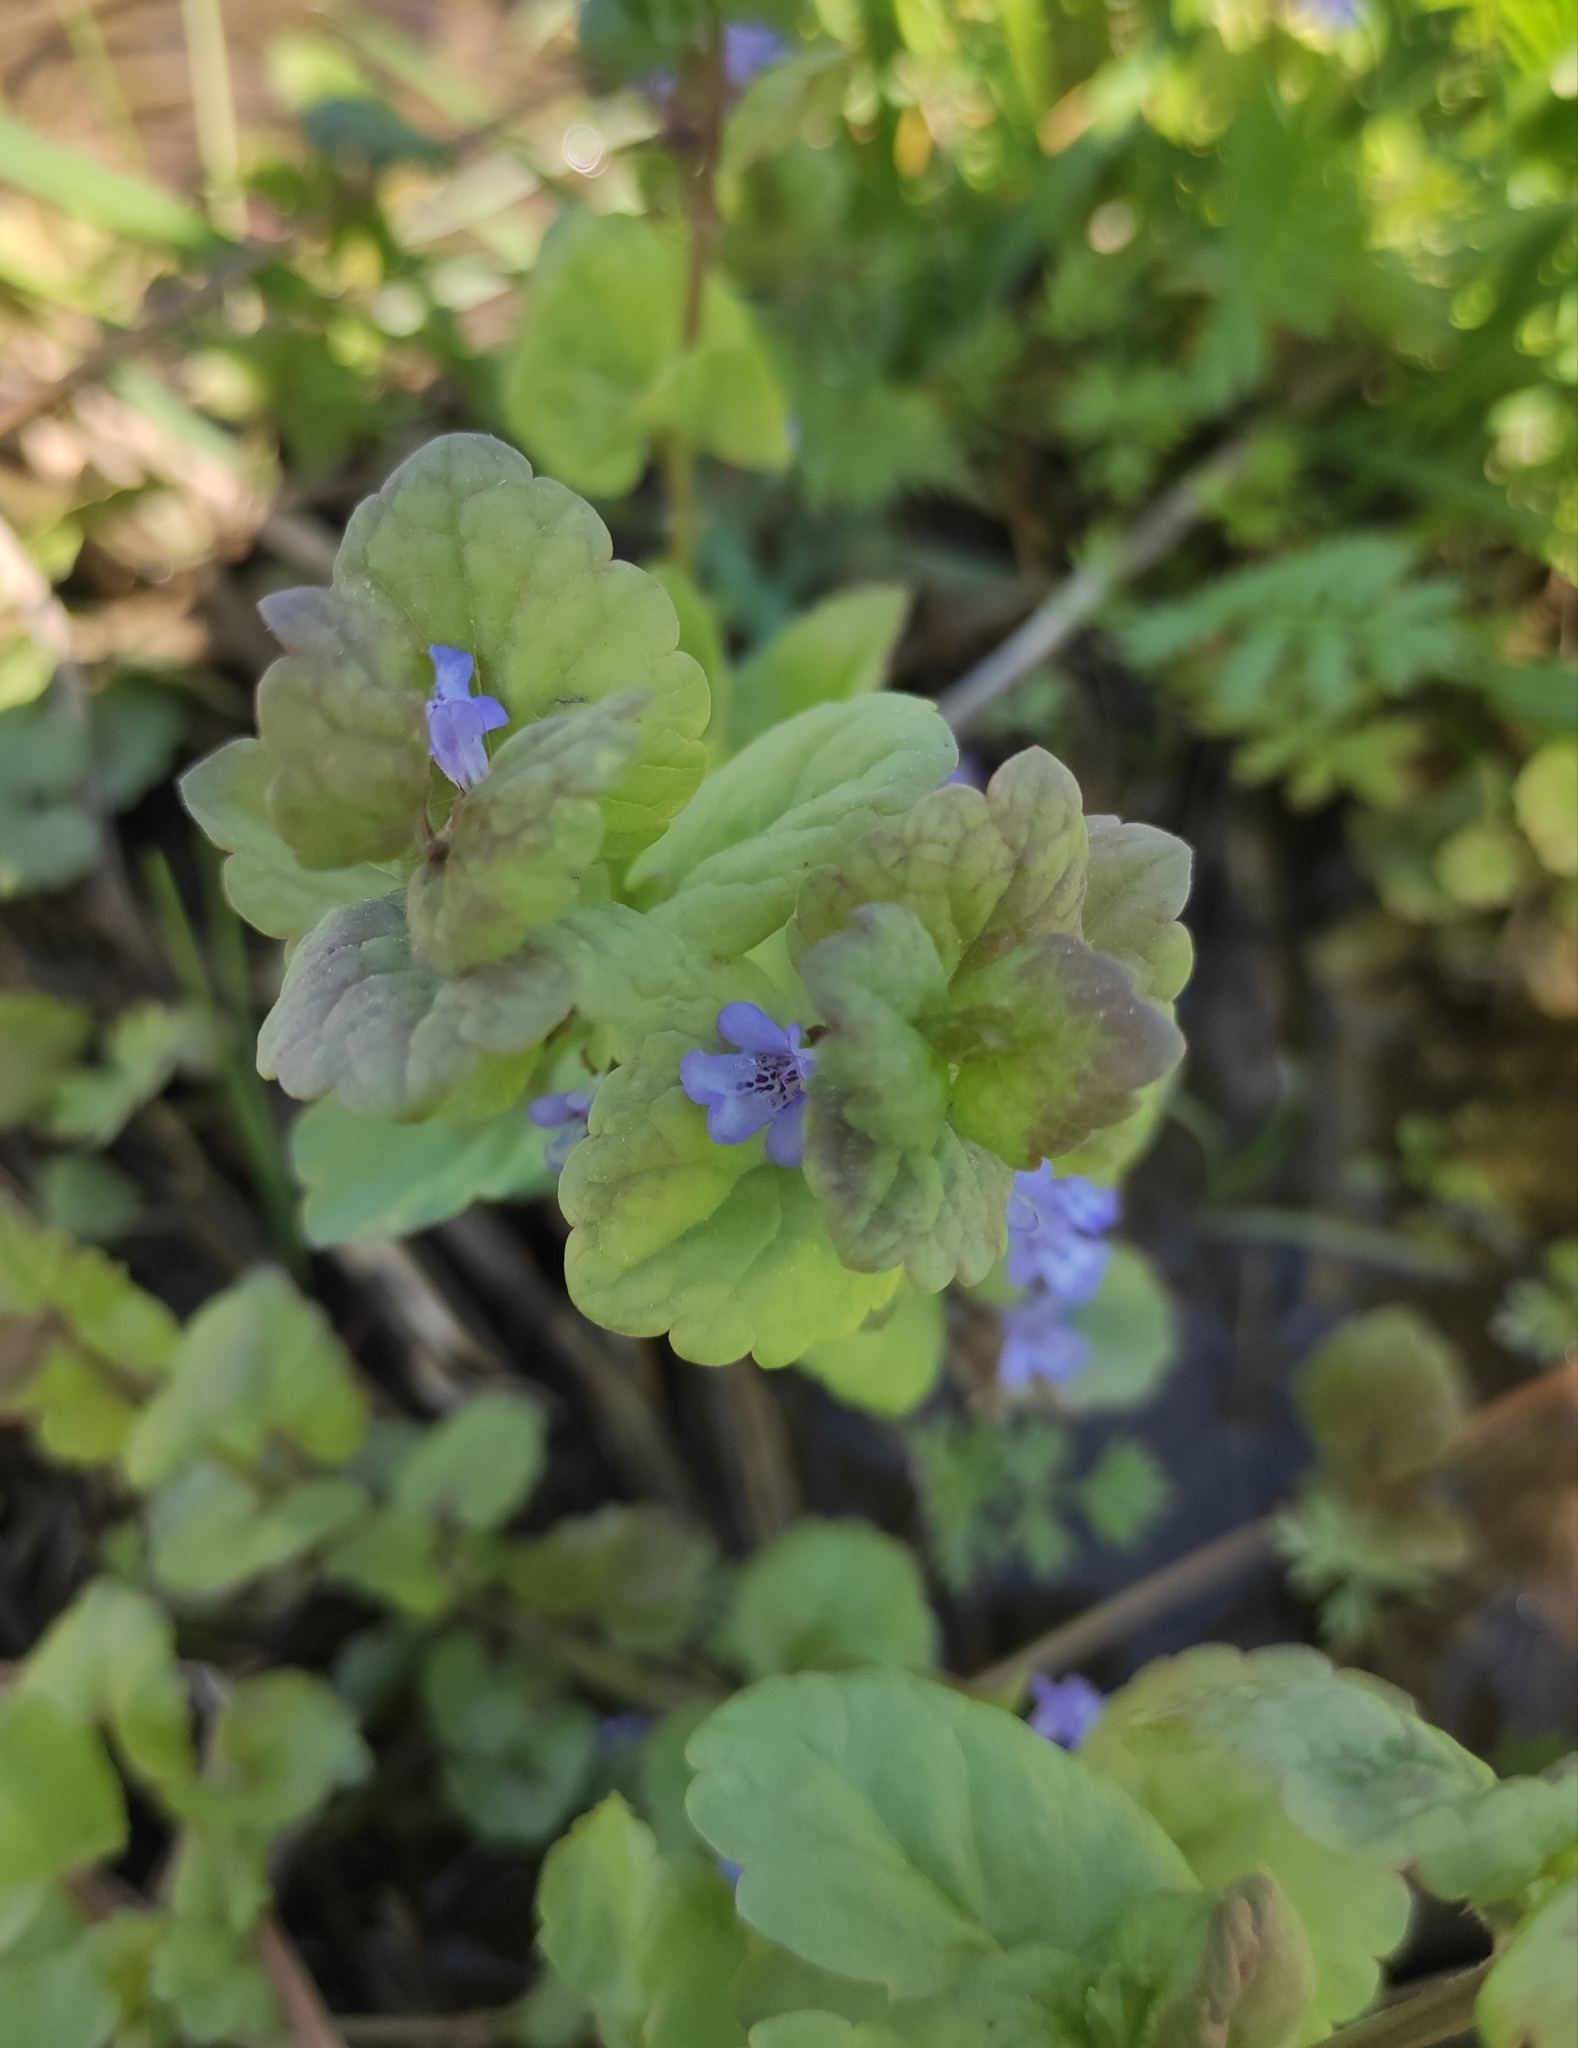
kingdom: Plantae
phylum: Tracheophyta
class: Magnoliopsida
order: Lamiales
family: Lamiaceae
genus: Glechoma
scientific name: Glechoma hederacea
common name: Ground ivy
